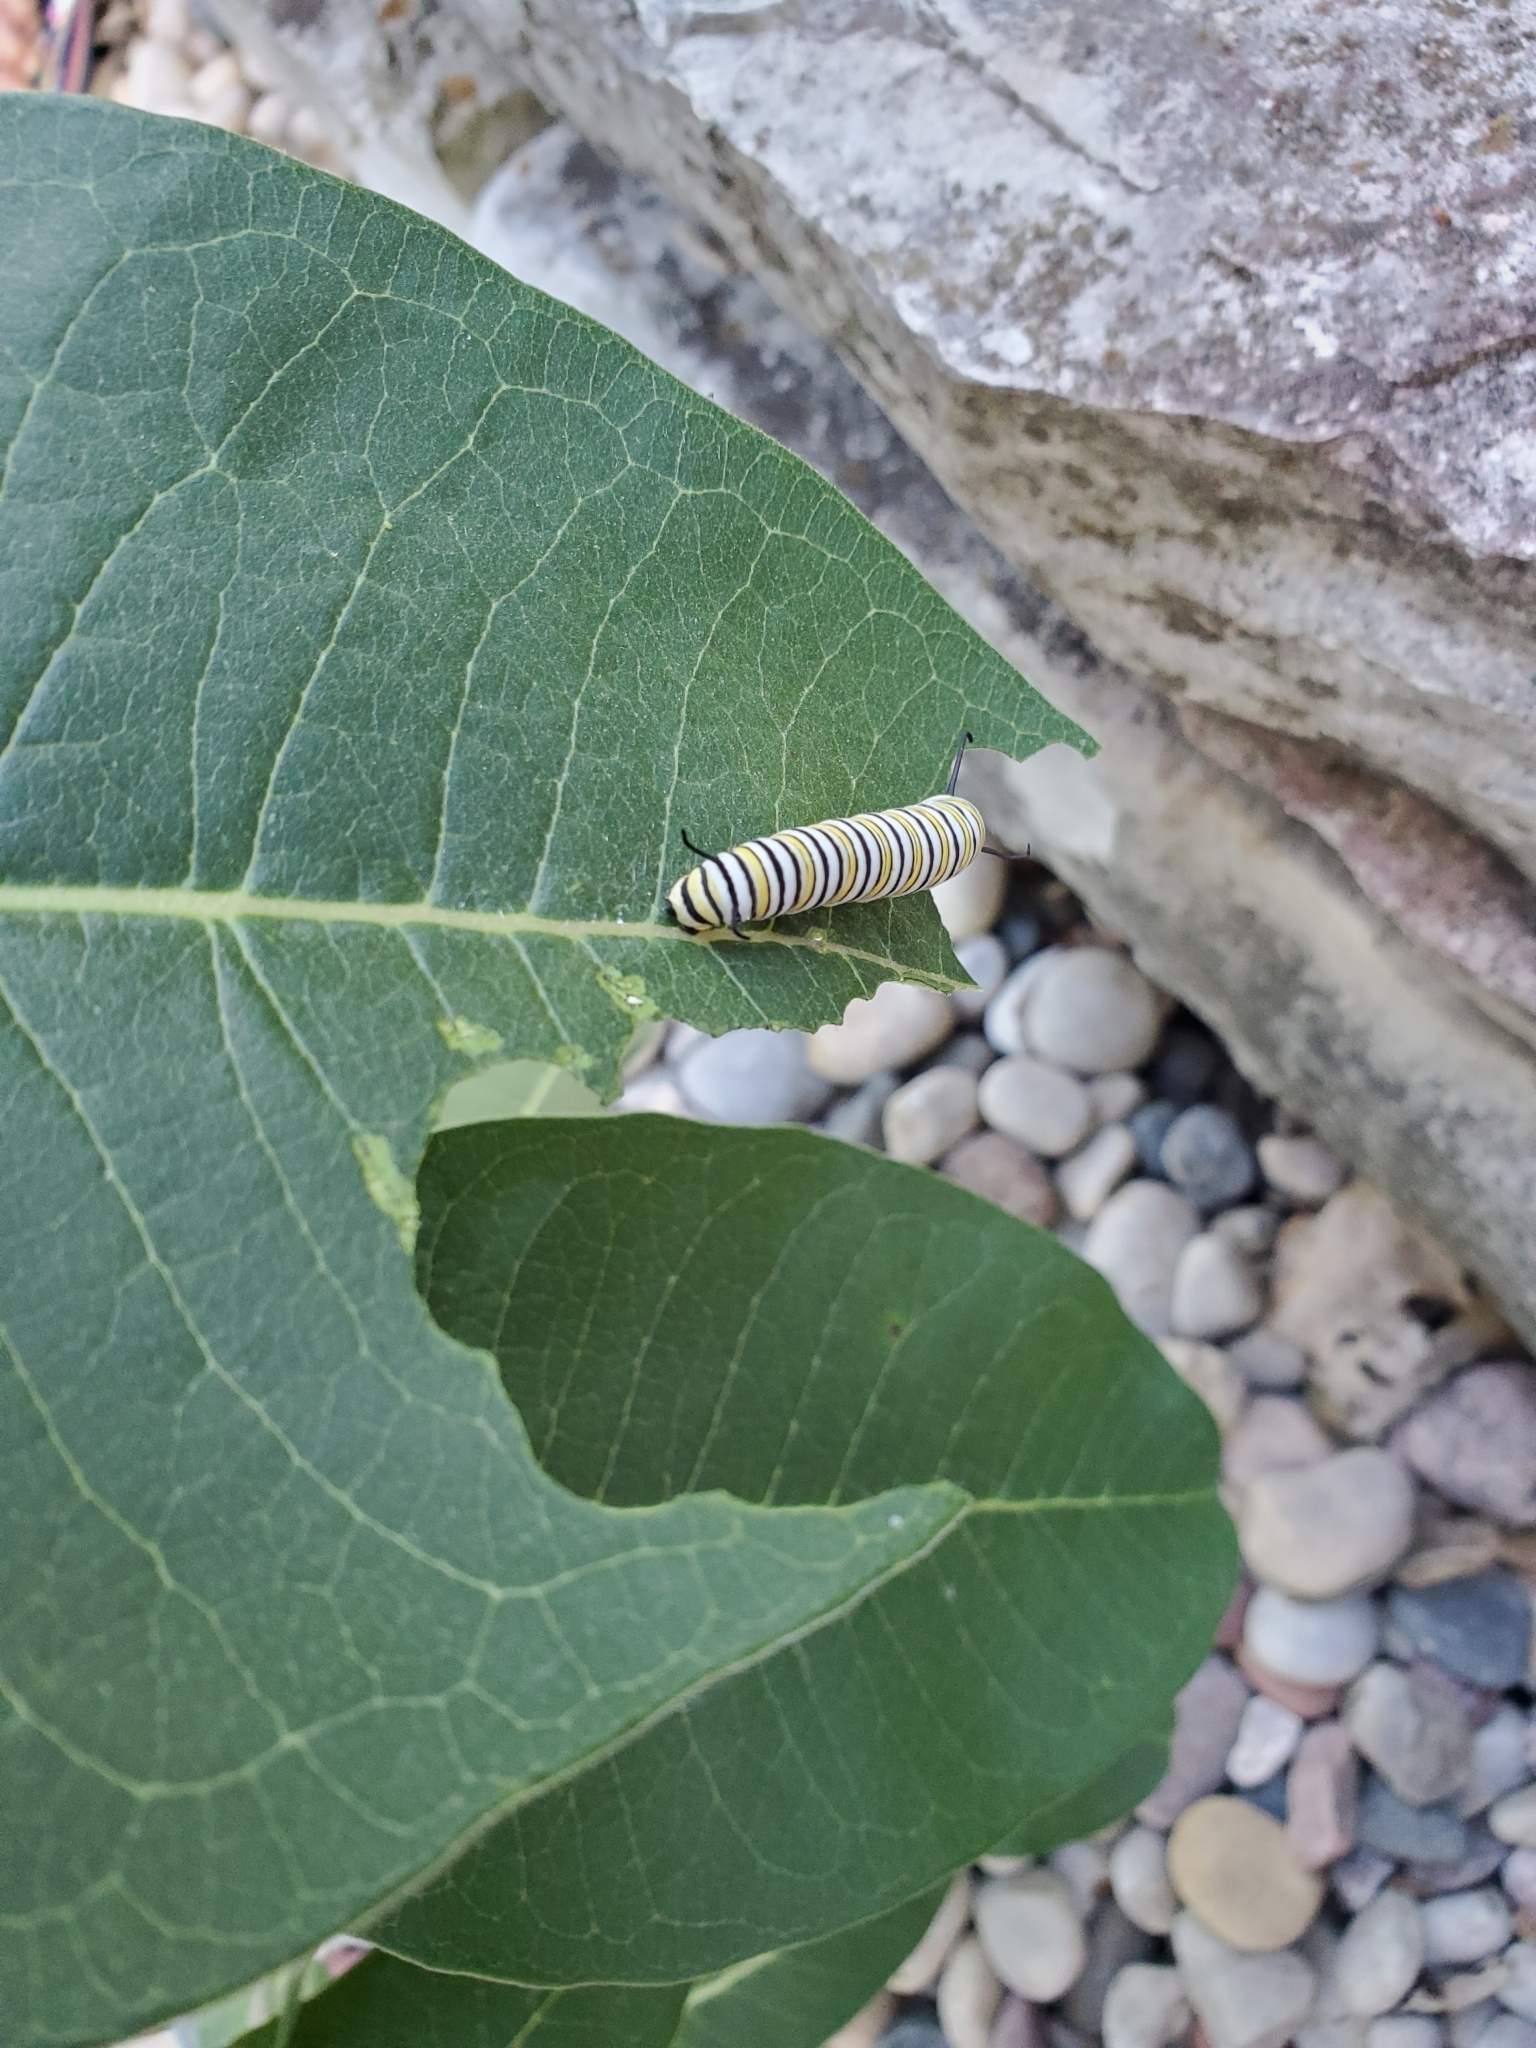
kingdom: Animalia
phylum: Arthropoda
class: Insecta
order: Lepidoptera
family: Nymphalidae
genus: Danaus
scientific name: Danaus plexippus
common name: Monarch
